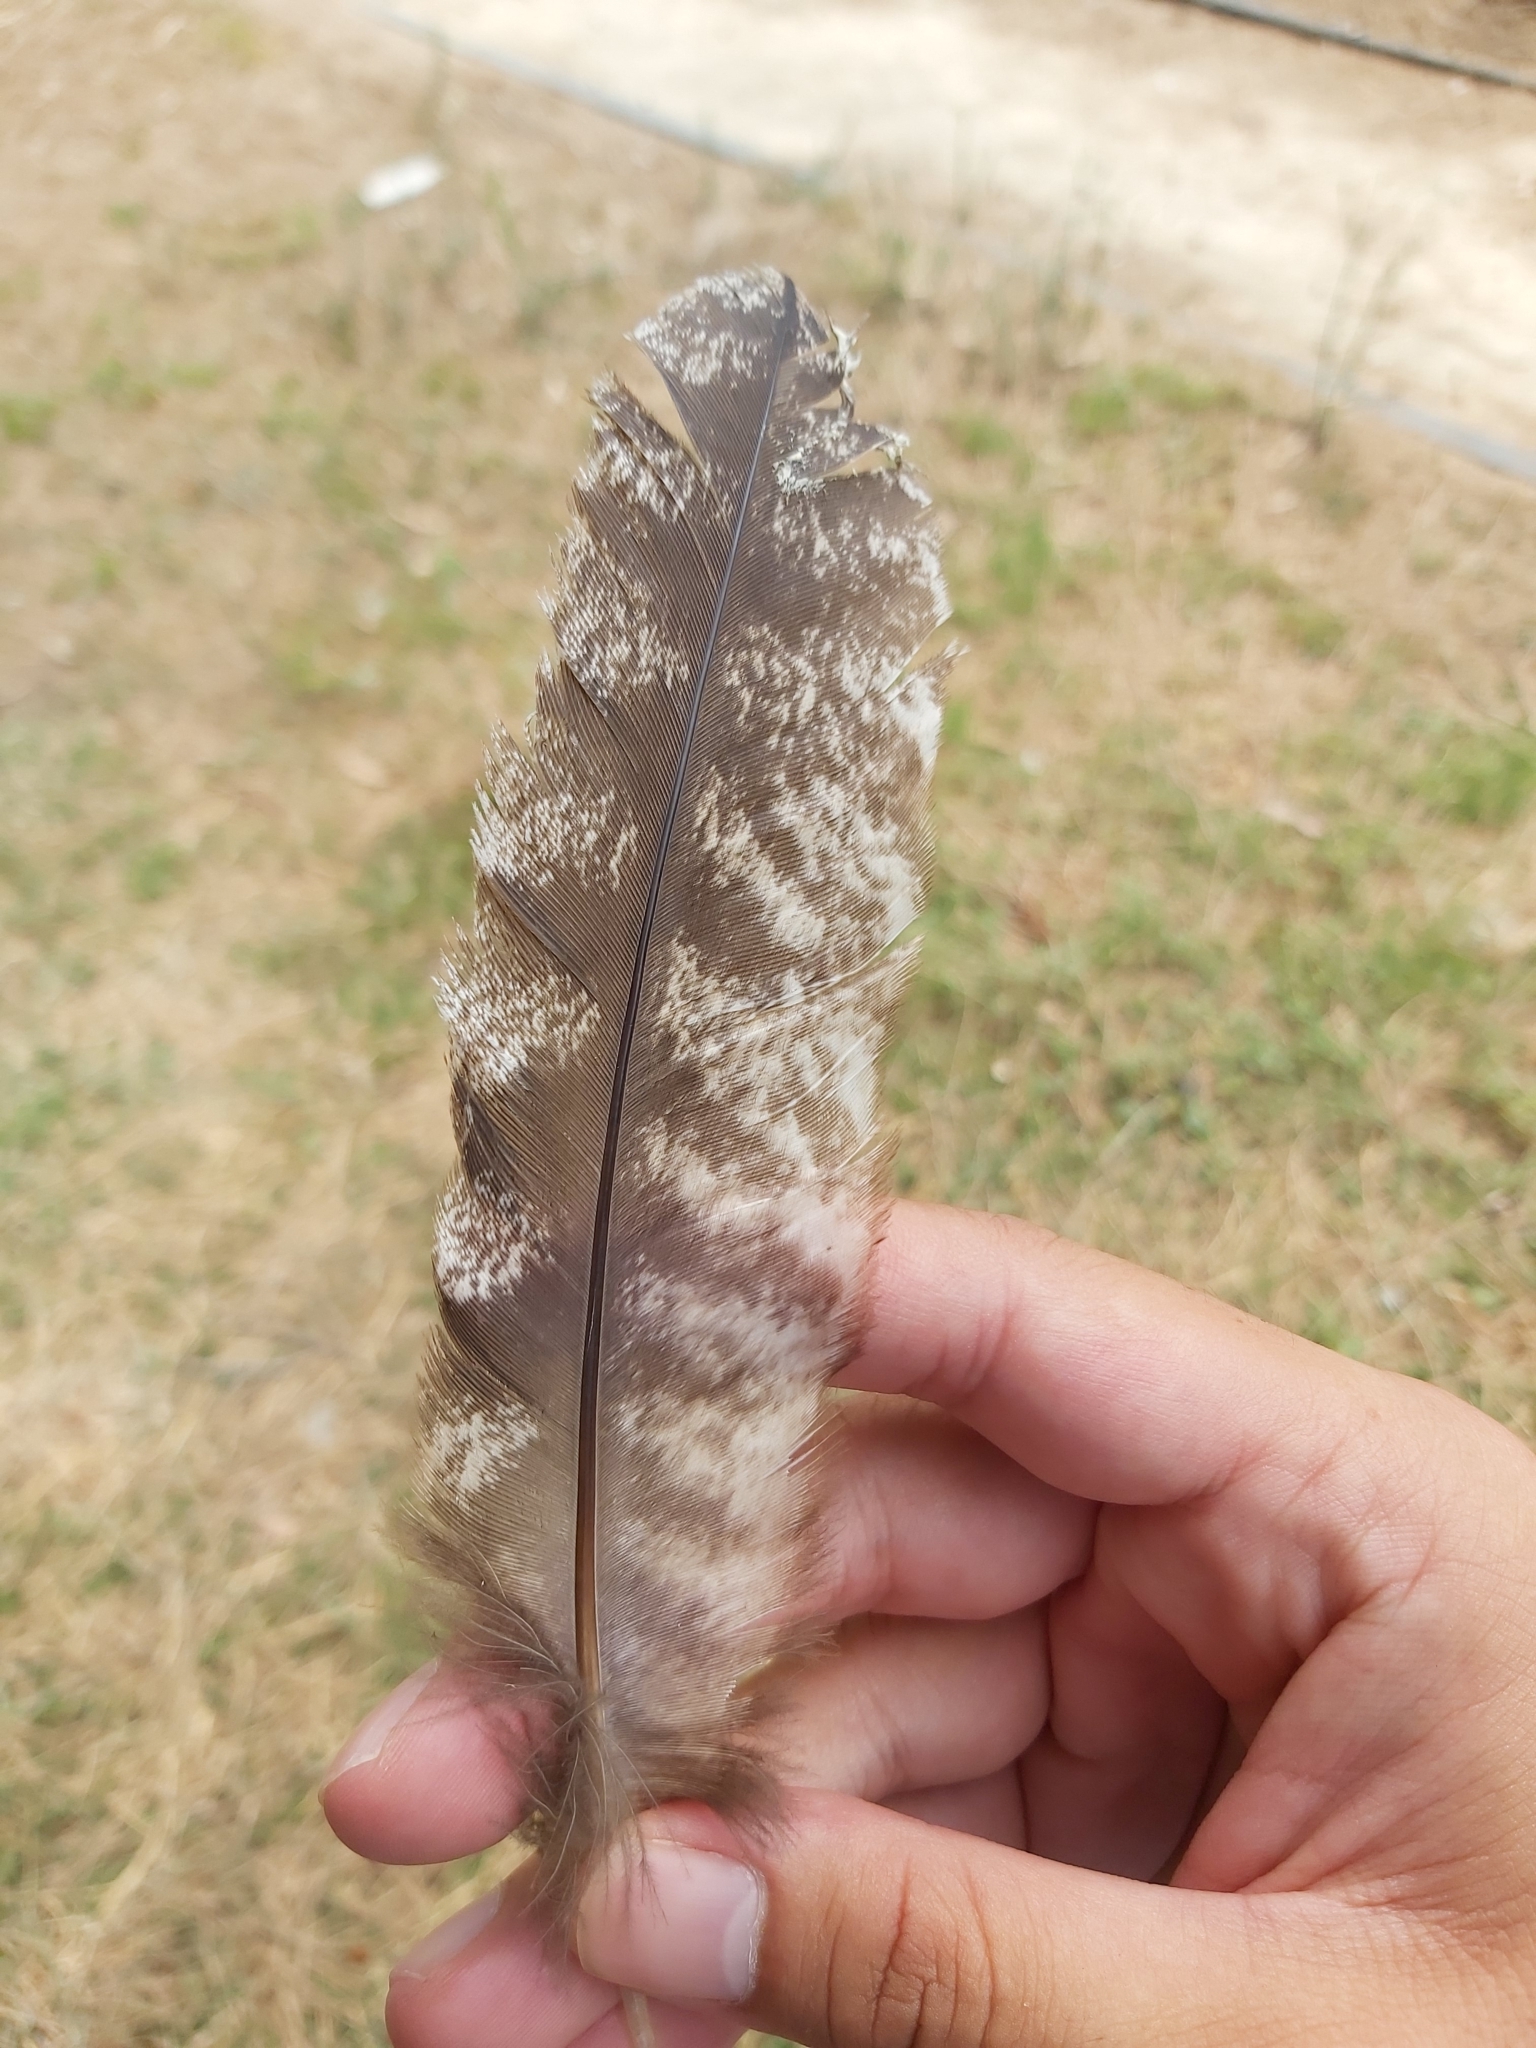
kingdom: Animalia
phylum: Chordata
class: Aves
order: Caprimulgiformes
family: Podargidae
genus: Podargus
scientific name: Podargus strigoides
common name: Tawny frogmouth
